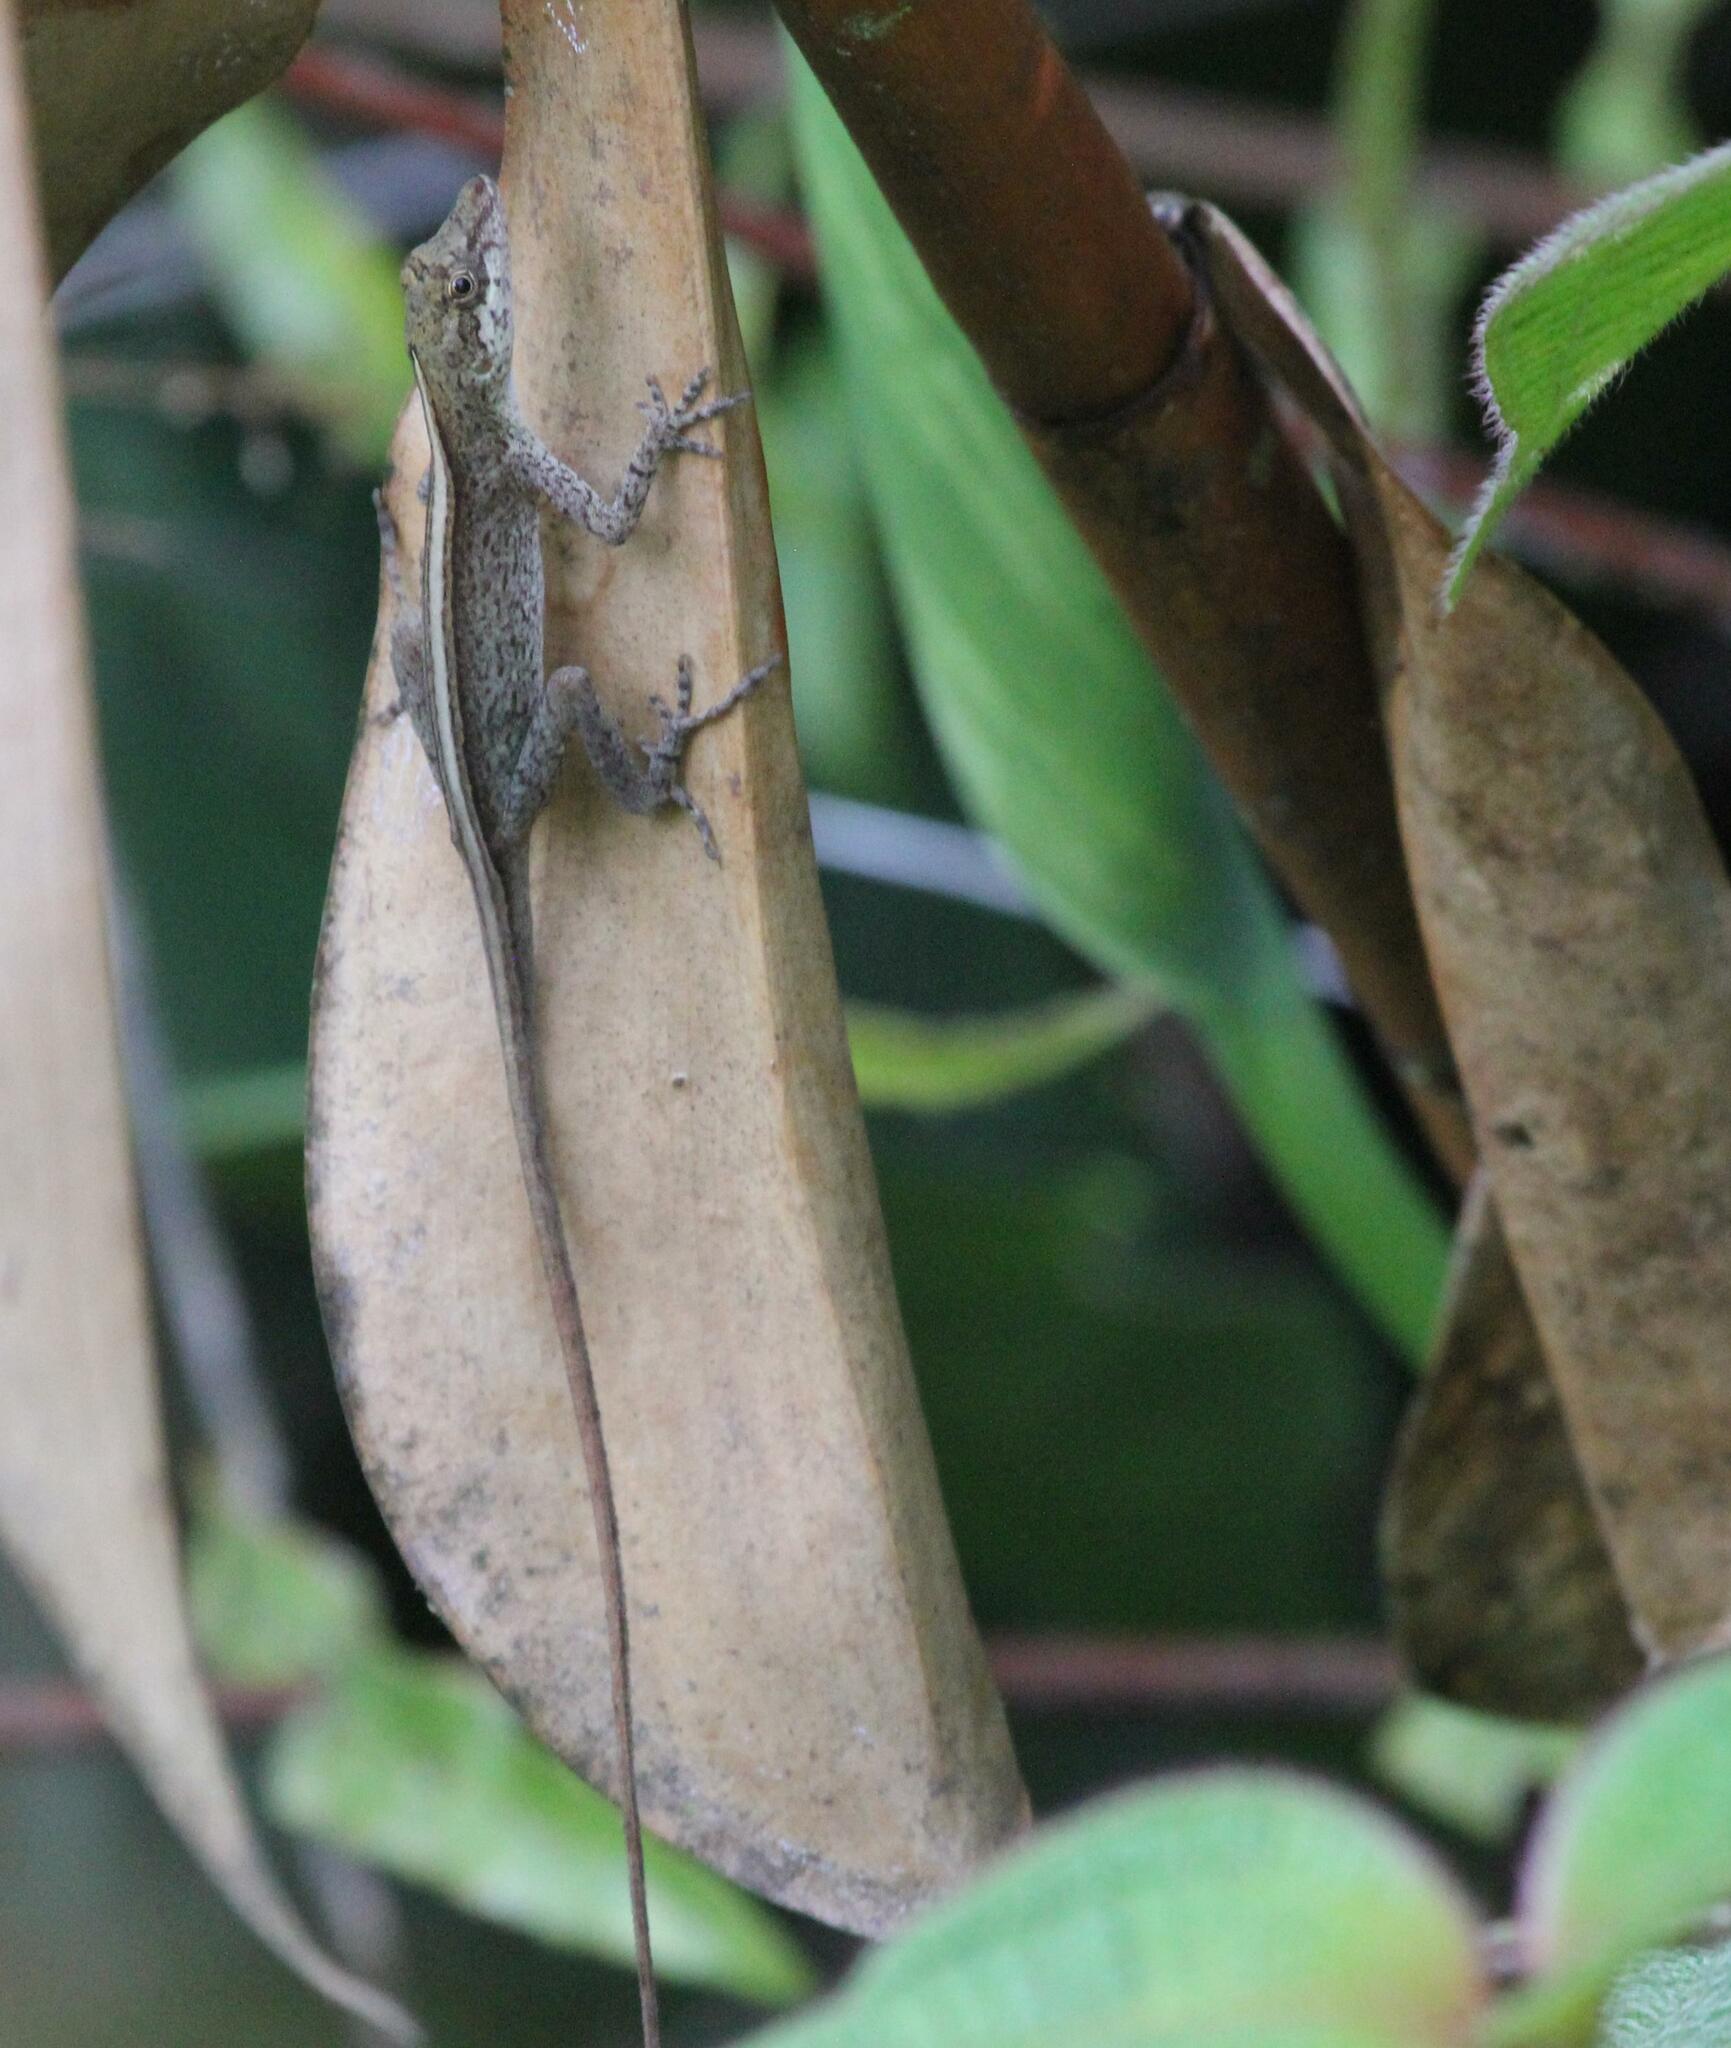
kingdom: Animalia
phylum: Chordata
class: Squamata
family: Dactyloidae
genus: Anolis
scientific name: Anolis fuscoauratus
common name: Brown-eared anole
